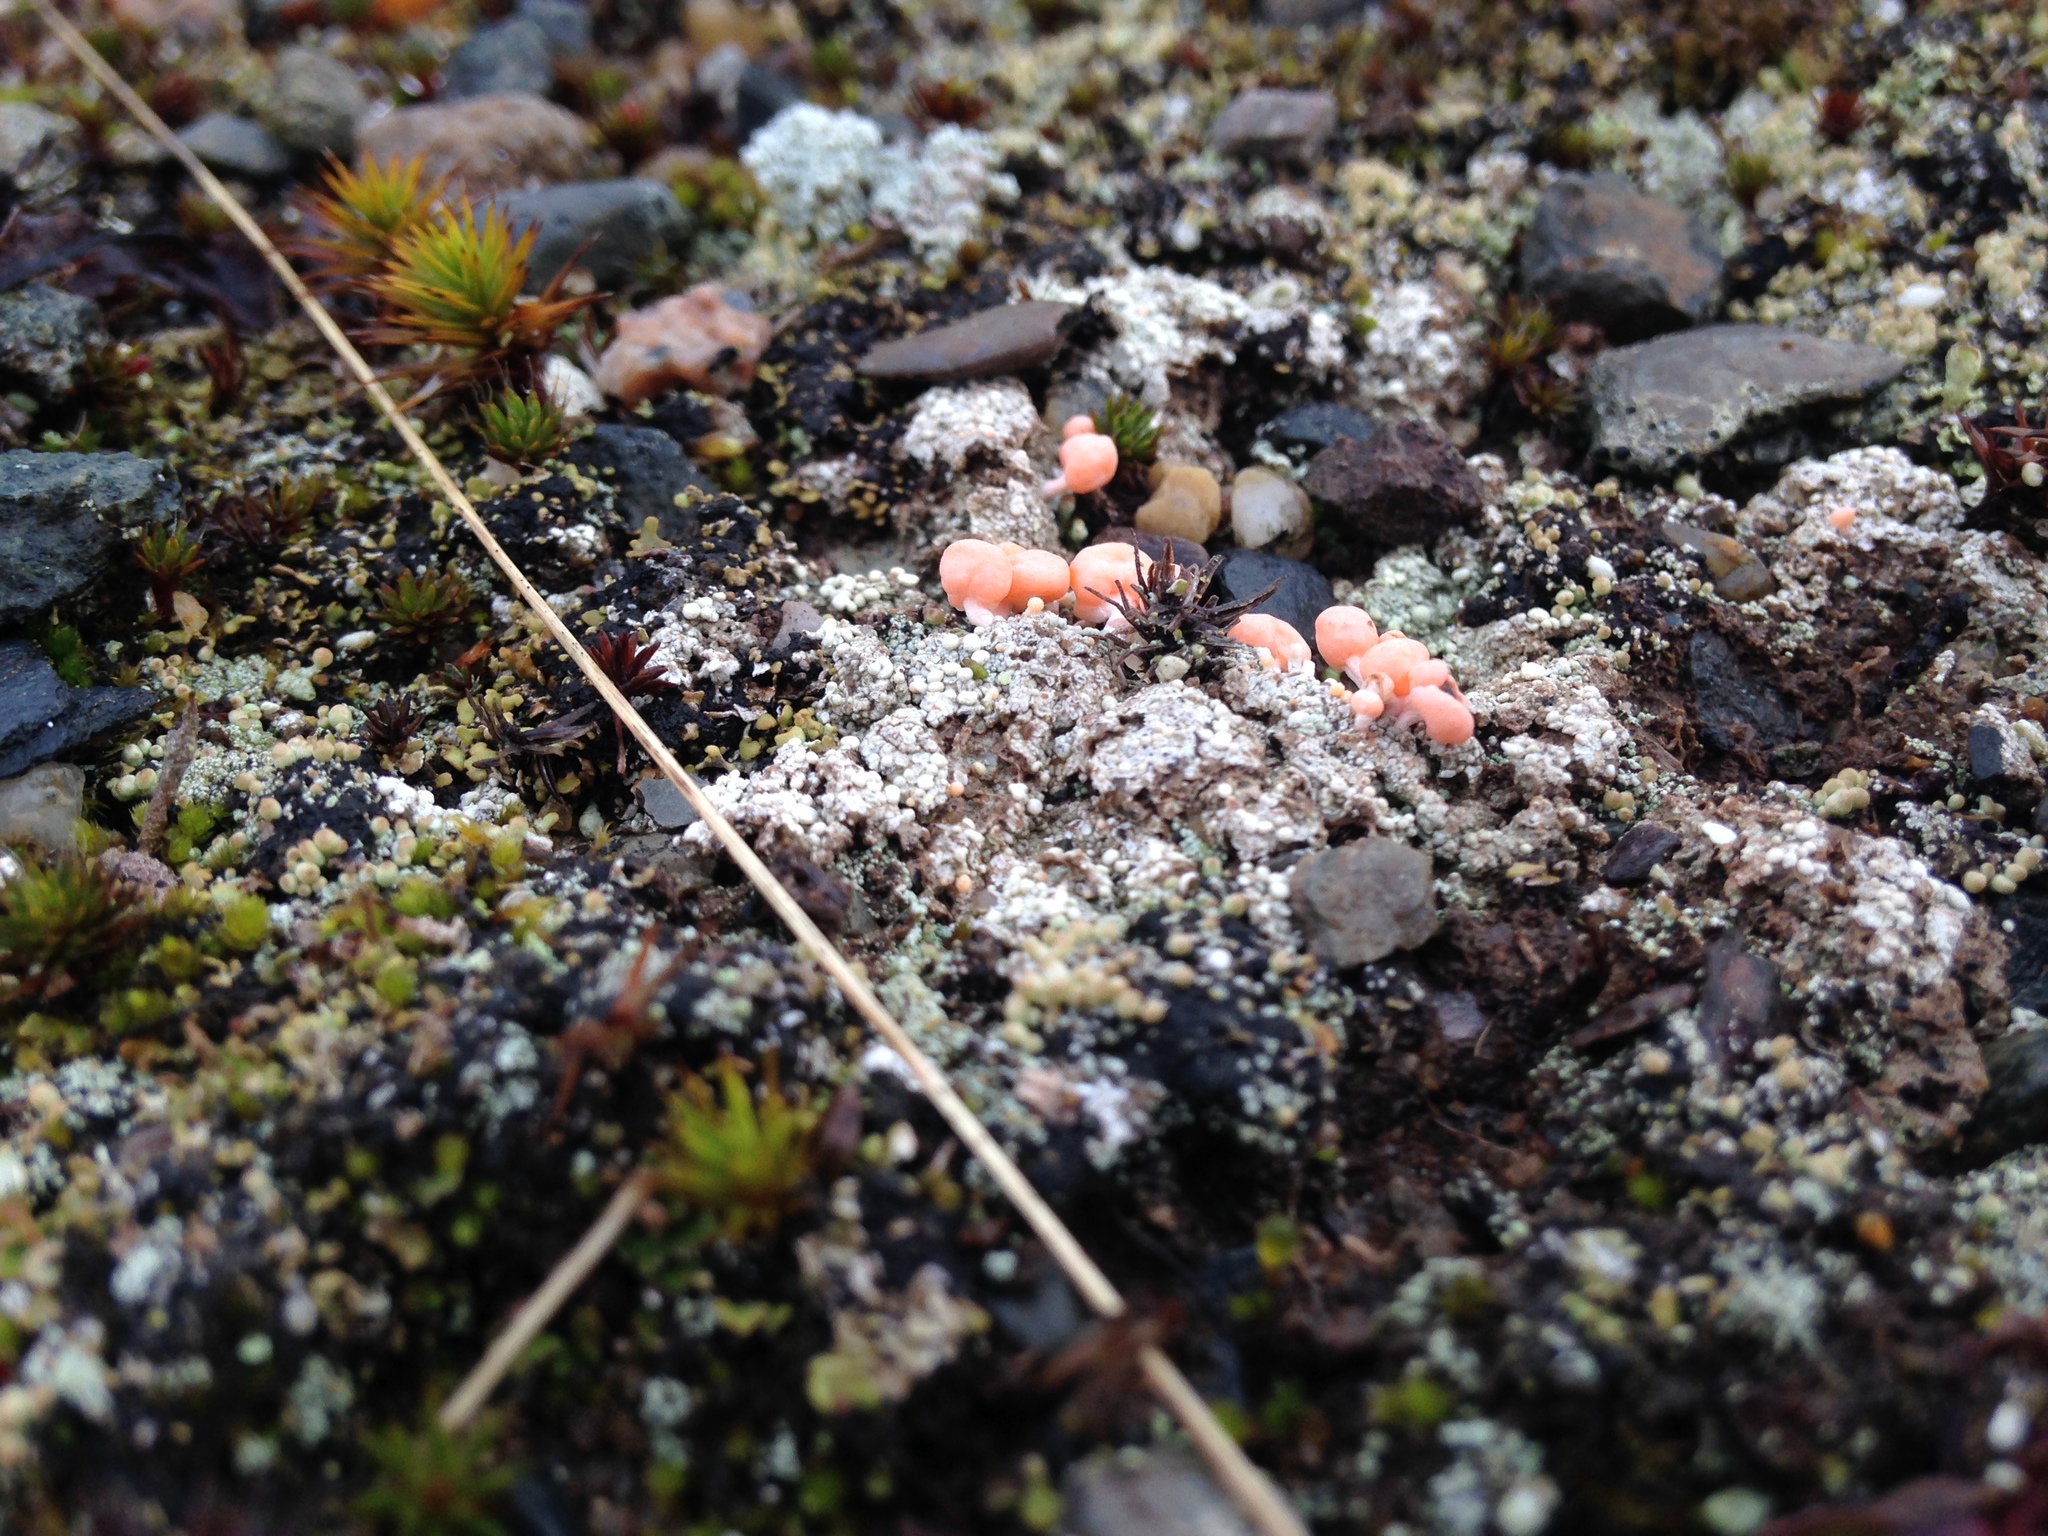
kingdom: Fungi
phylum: Ascomycota
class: Lecanoromycetes
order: Pertusariales
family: Icmadophilaceae
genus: Dibaeis
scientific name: Dibaeis baeomyces
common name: Pink earth lichen
